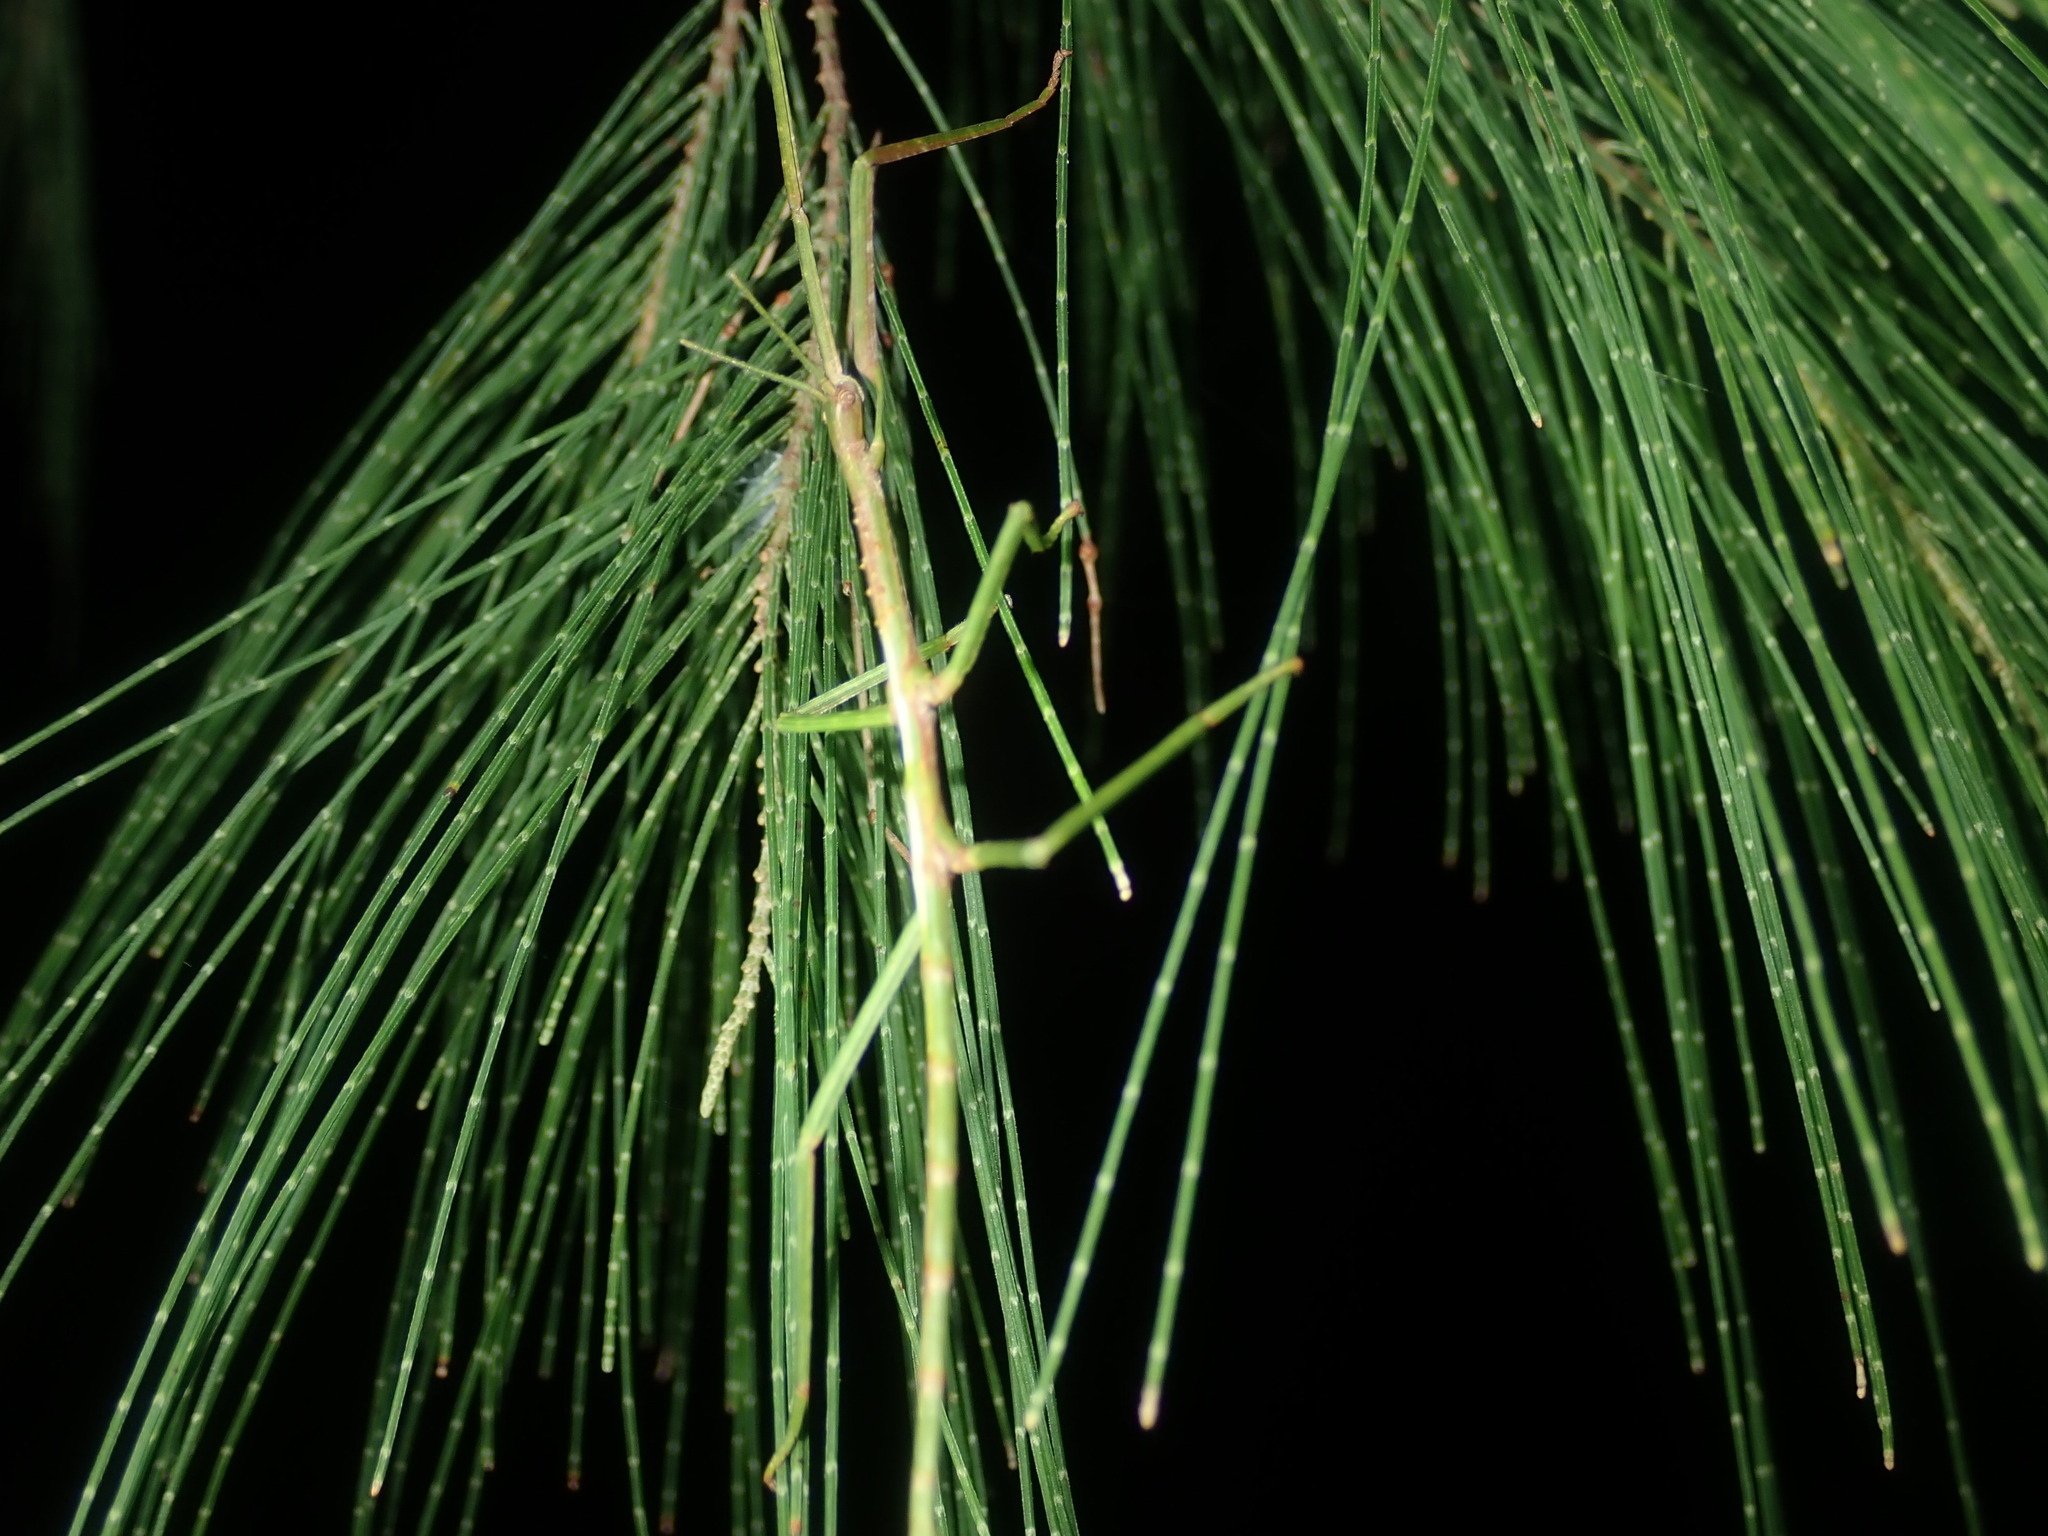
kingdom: Animalia
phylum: Arthropoda
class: Insecta
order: Phasmida
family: Phasmatidae
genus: Acrophylla
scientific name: Acrophylla titan
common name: Titan stick insect
